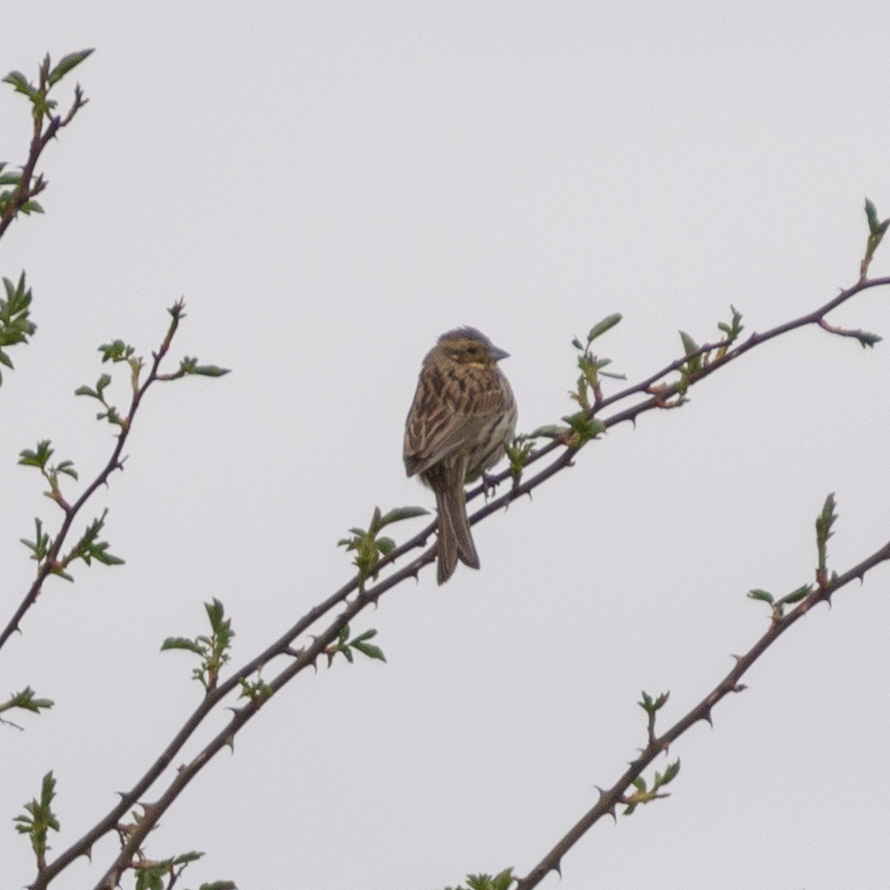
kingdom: Animalia
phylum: Chordata
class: Aves
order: Passeriformes
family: Emberizidae
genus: Emberiza
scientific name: Emberiza cirlus
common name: Cirl bunting
